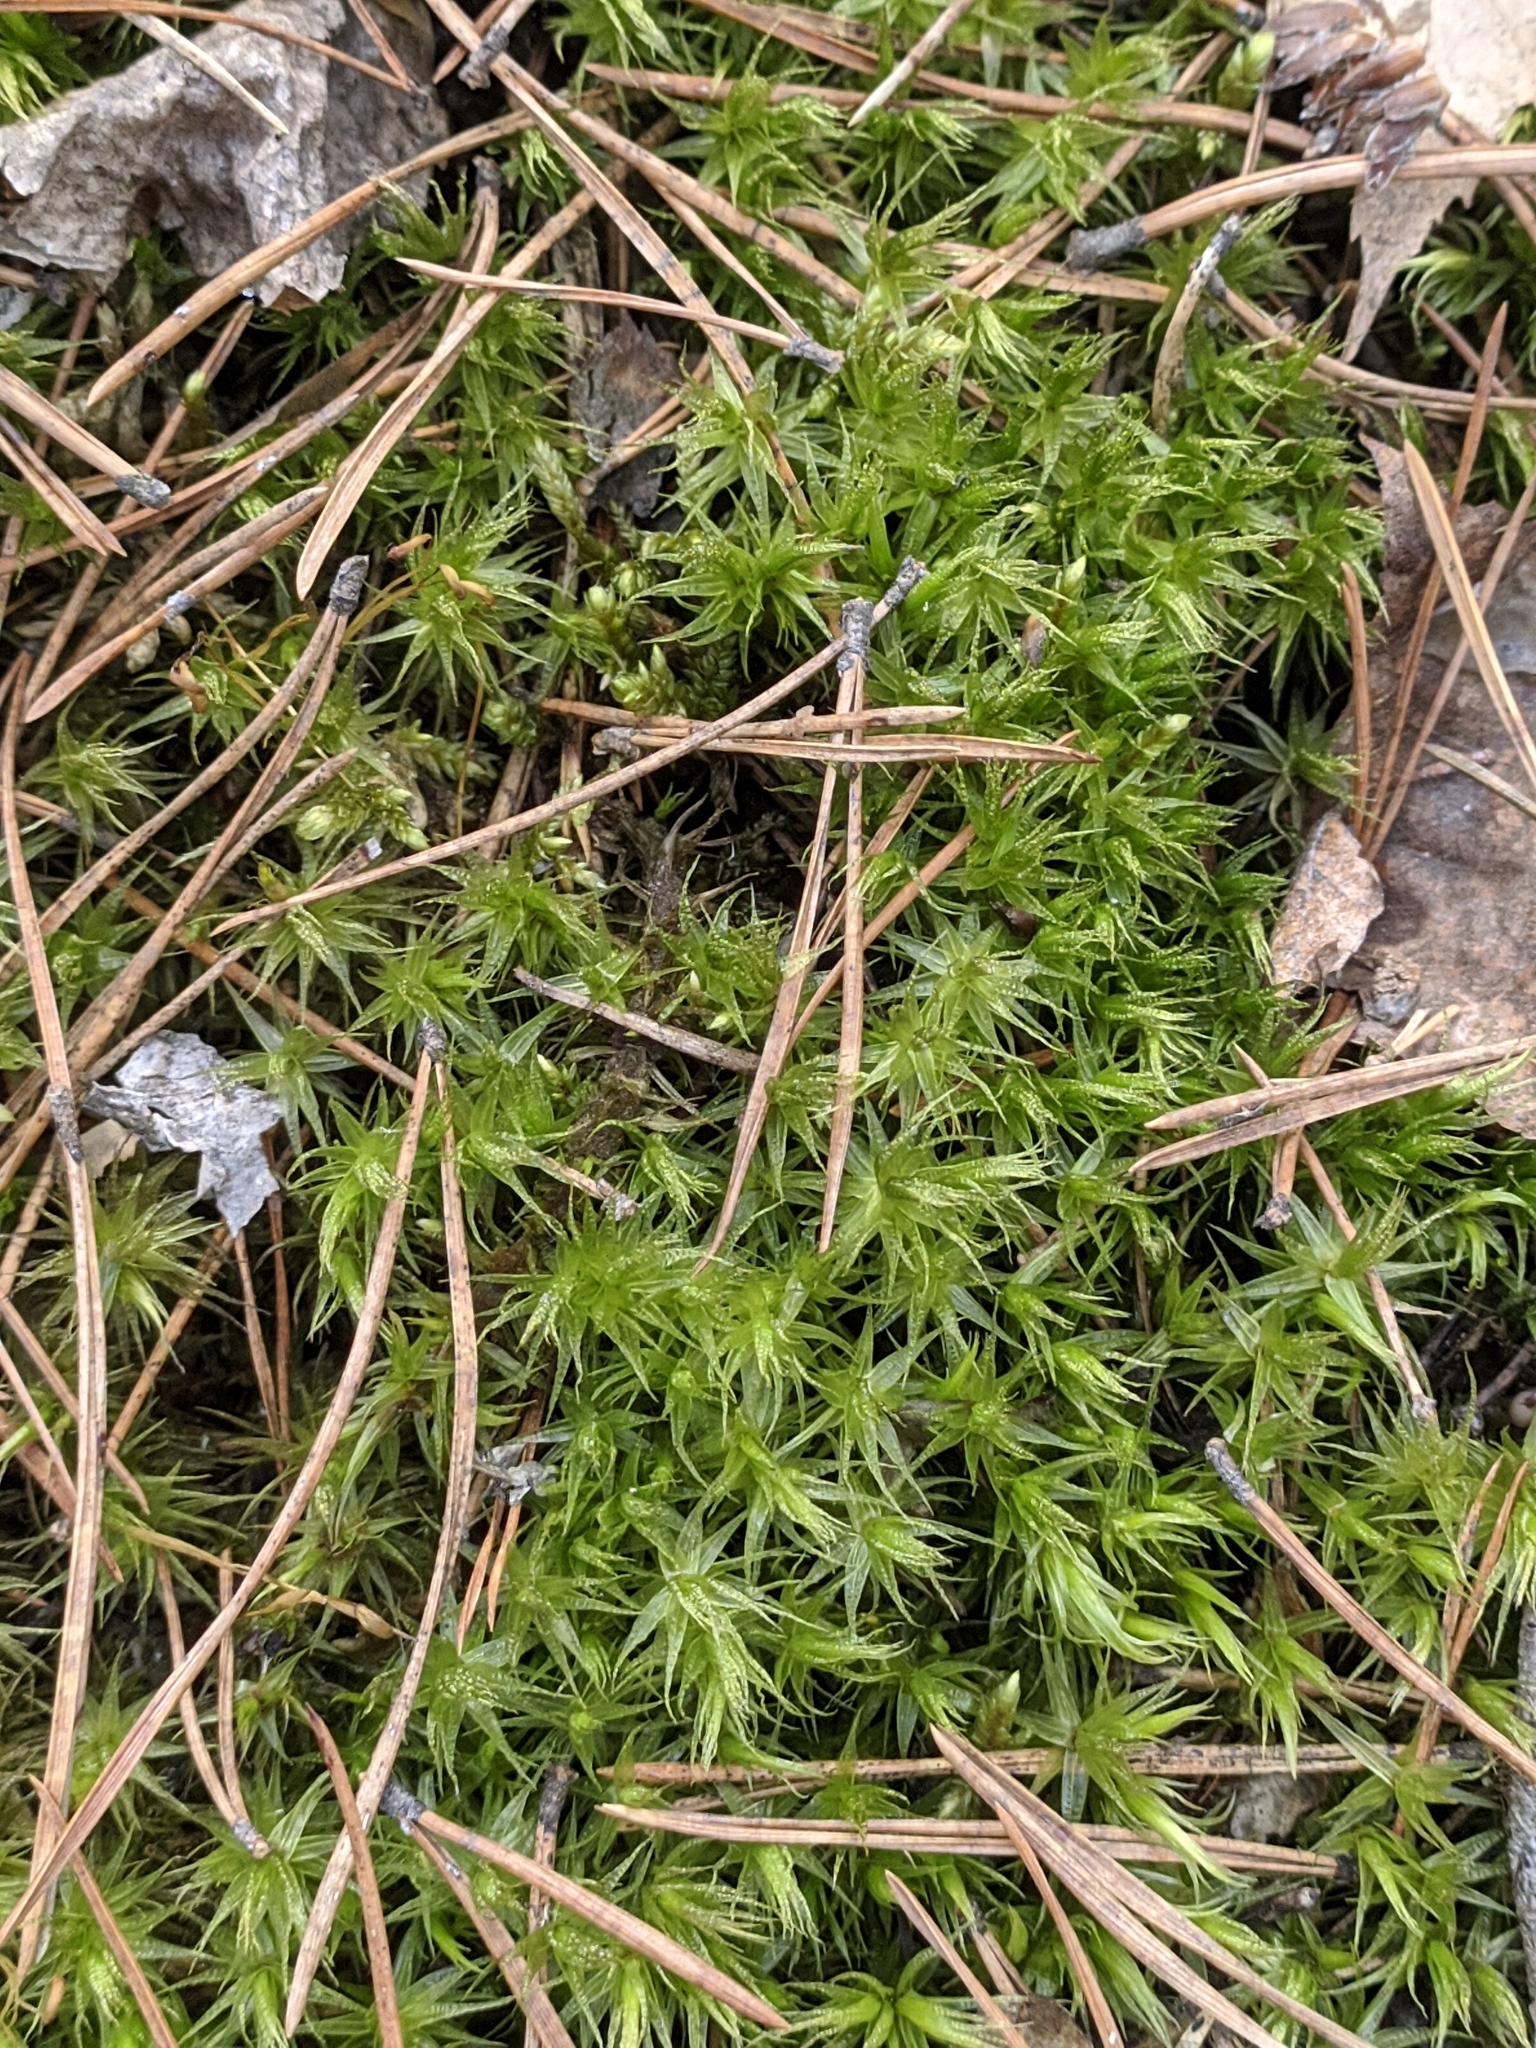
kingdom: Plantae
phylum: Bryophyta
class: Bryopsida
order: Dicranales
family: Dicranaceae
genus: Dicranum
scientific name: Dicranum polysetum
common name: Rugose fork-moss
